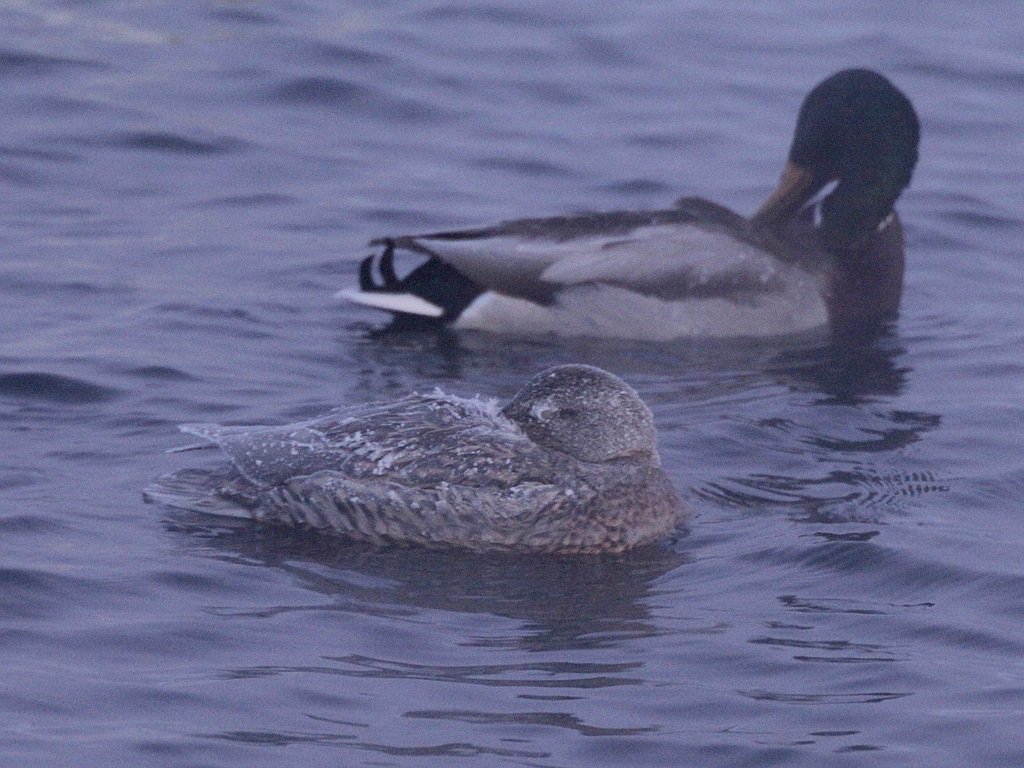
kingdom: Animalia
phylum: Chordata
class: Aves
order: Anseriformes
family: Anatidae
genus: Anas
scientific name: Anas platyrhynchos
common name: Mallard
